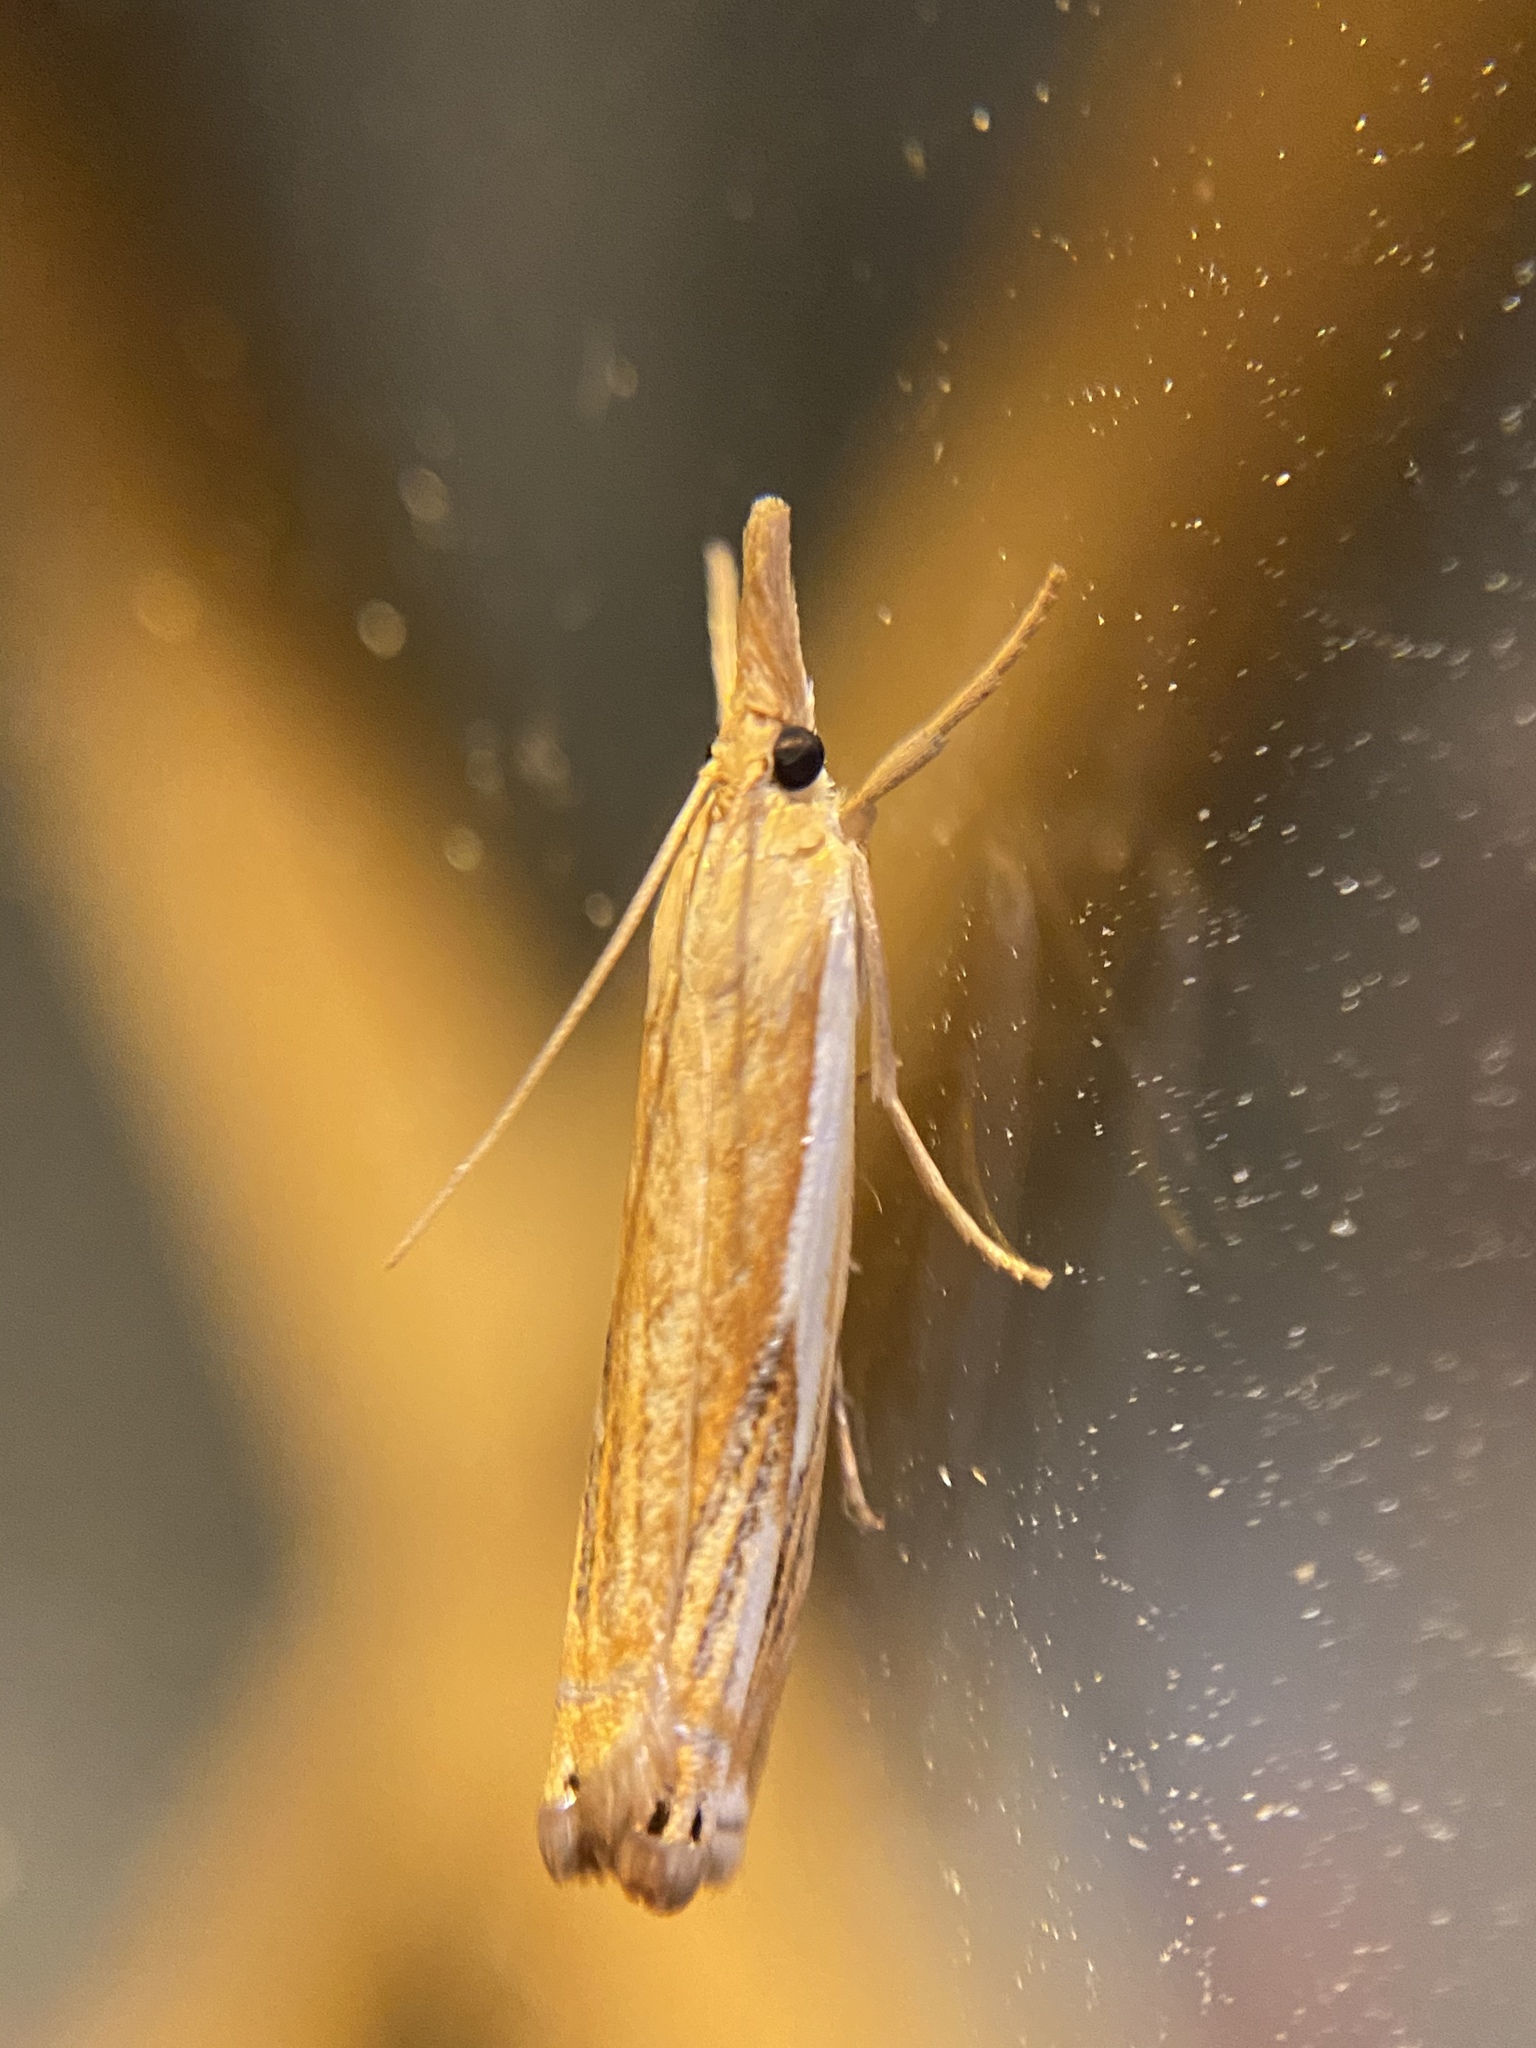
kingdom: Animalia
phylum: Arthropoda
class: Insecta
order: Lepidoptera
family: Crambidae
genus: Crambus
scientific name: Crambus agitatellus
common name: Double-banded grass-veneer
